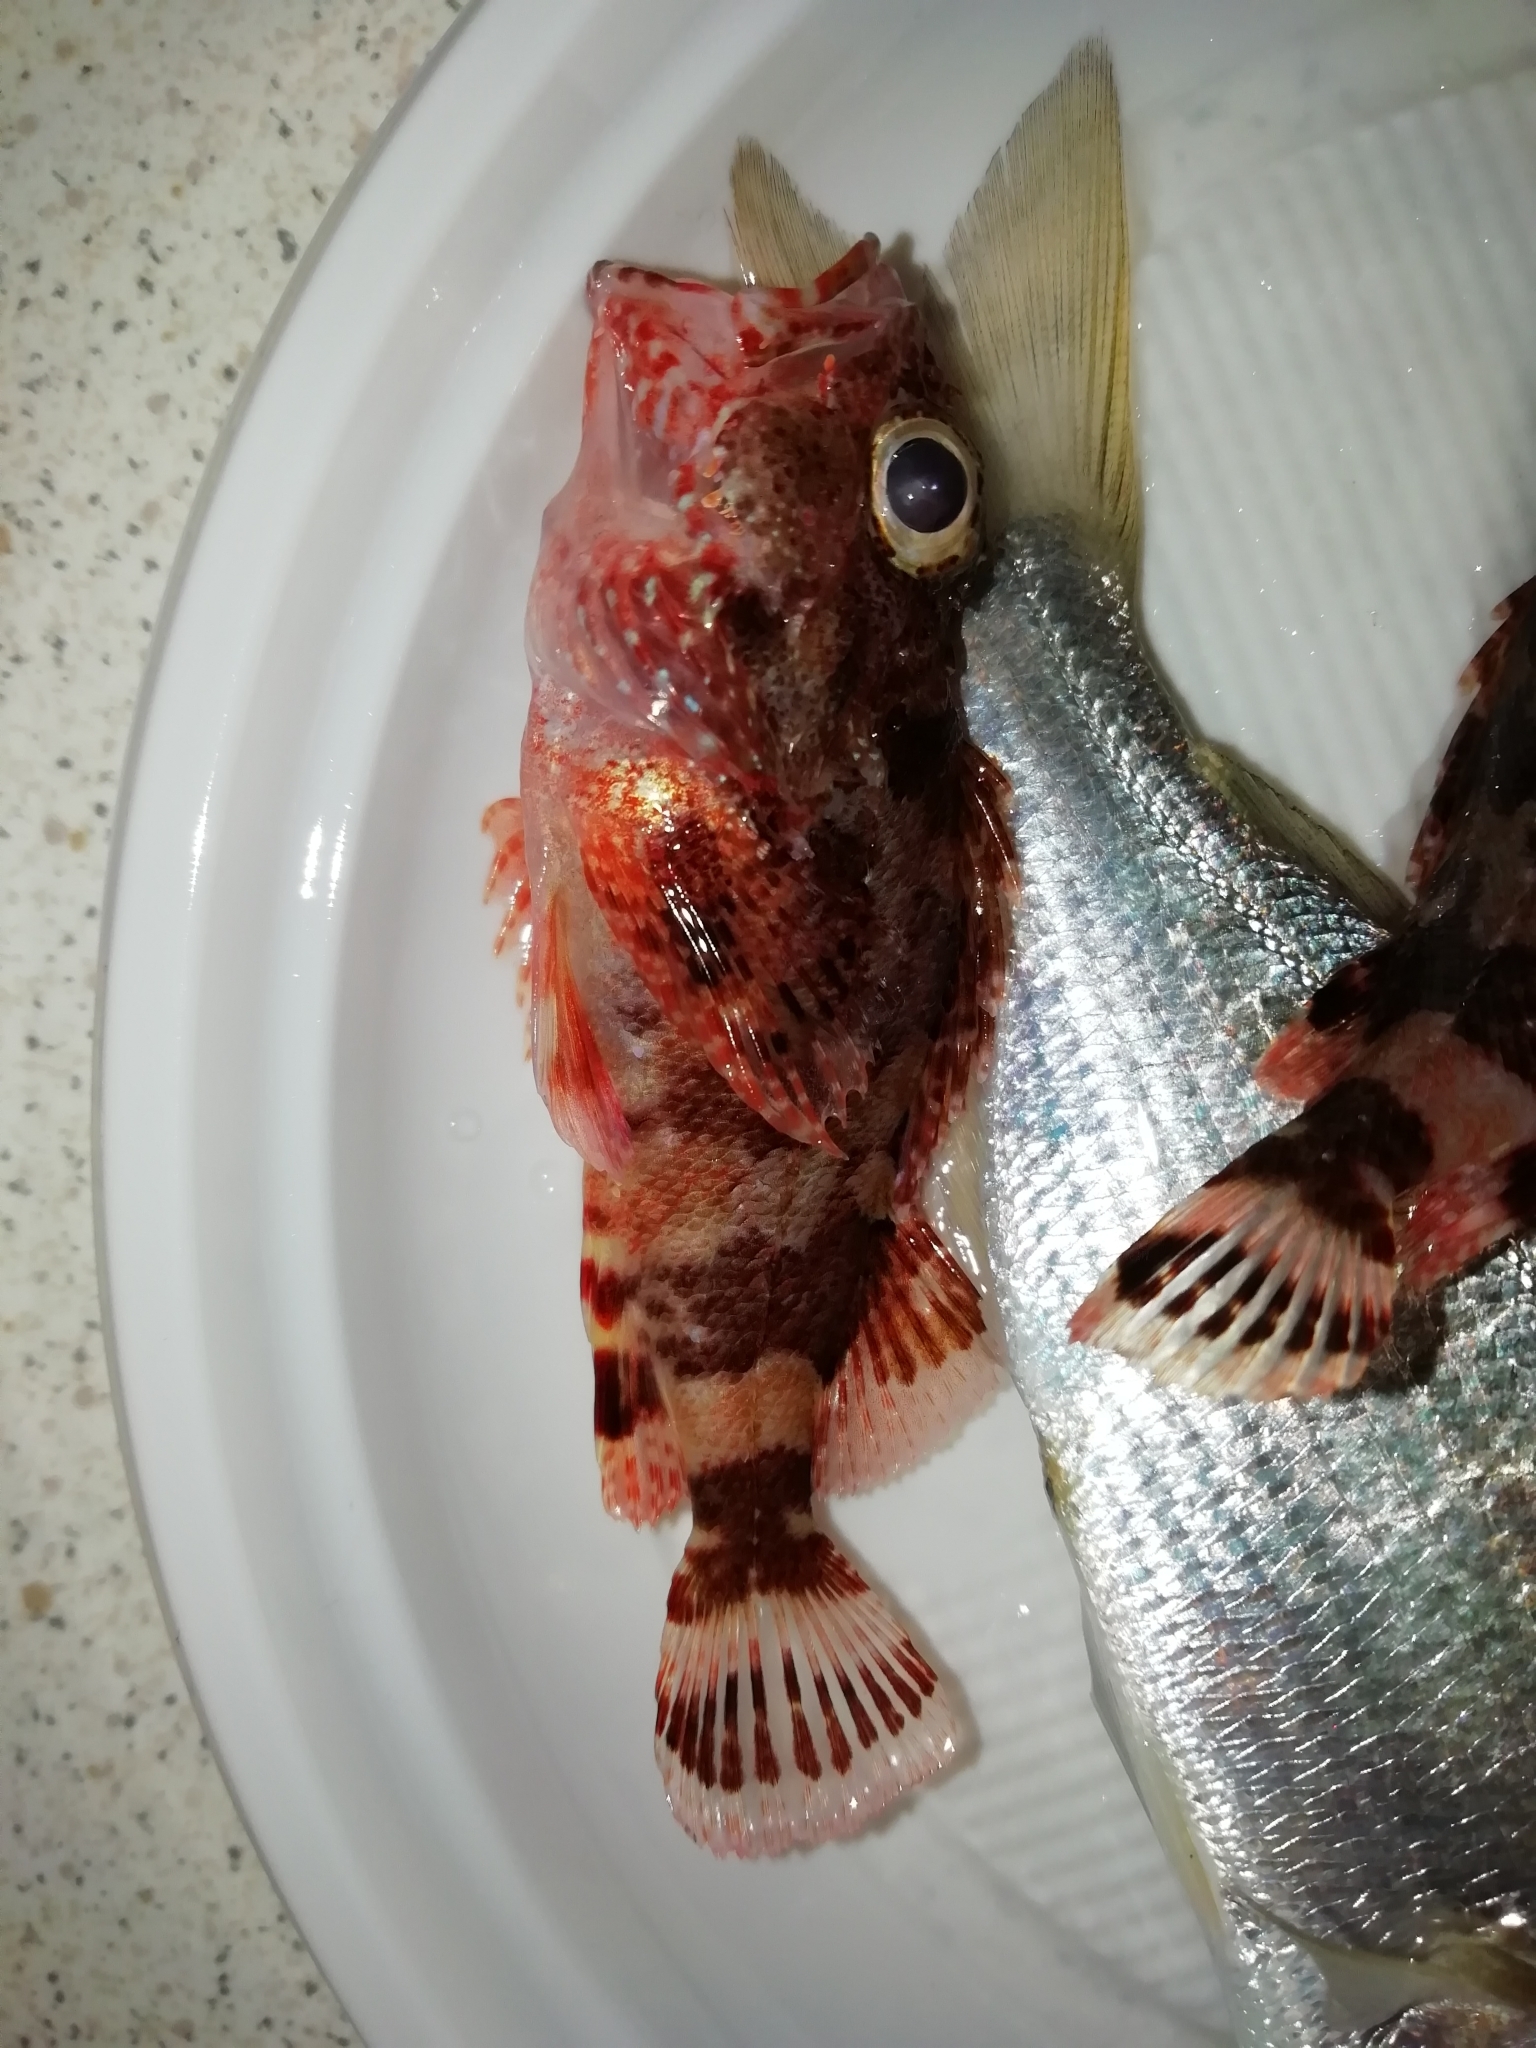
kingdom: Animalia
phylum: Chordata
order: Scorpaeniformes
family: Scorpaenidae
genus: Scorpaena
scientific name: Scorpaena maderensis
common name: Madeira rockfish
